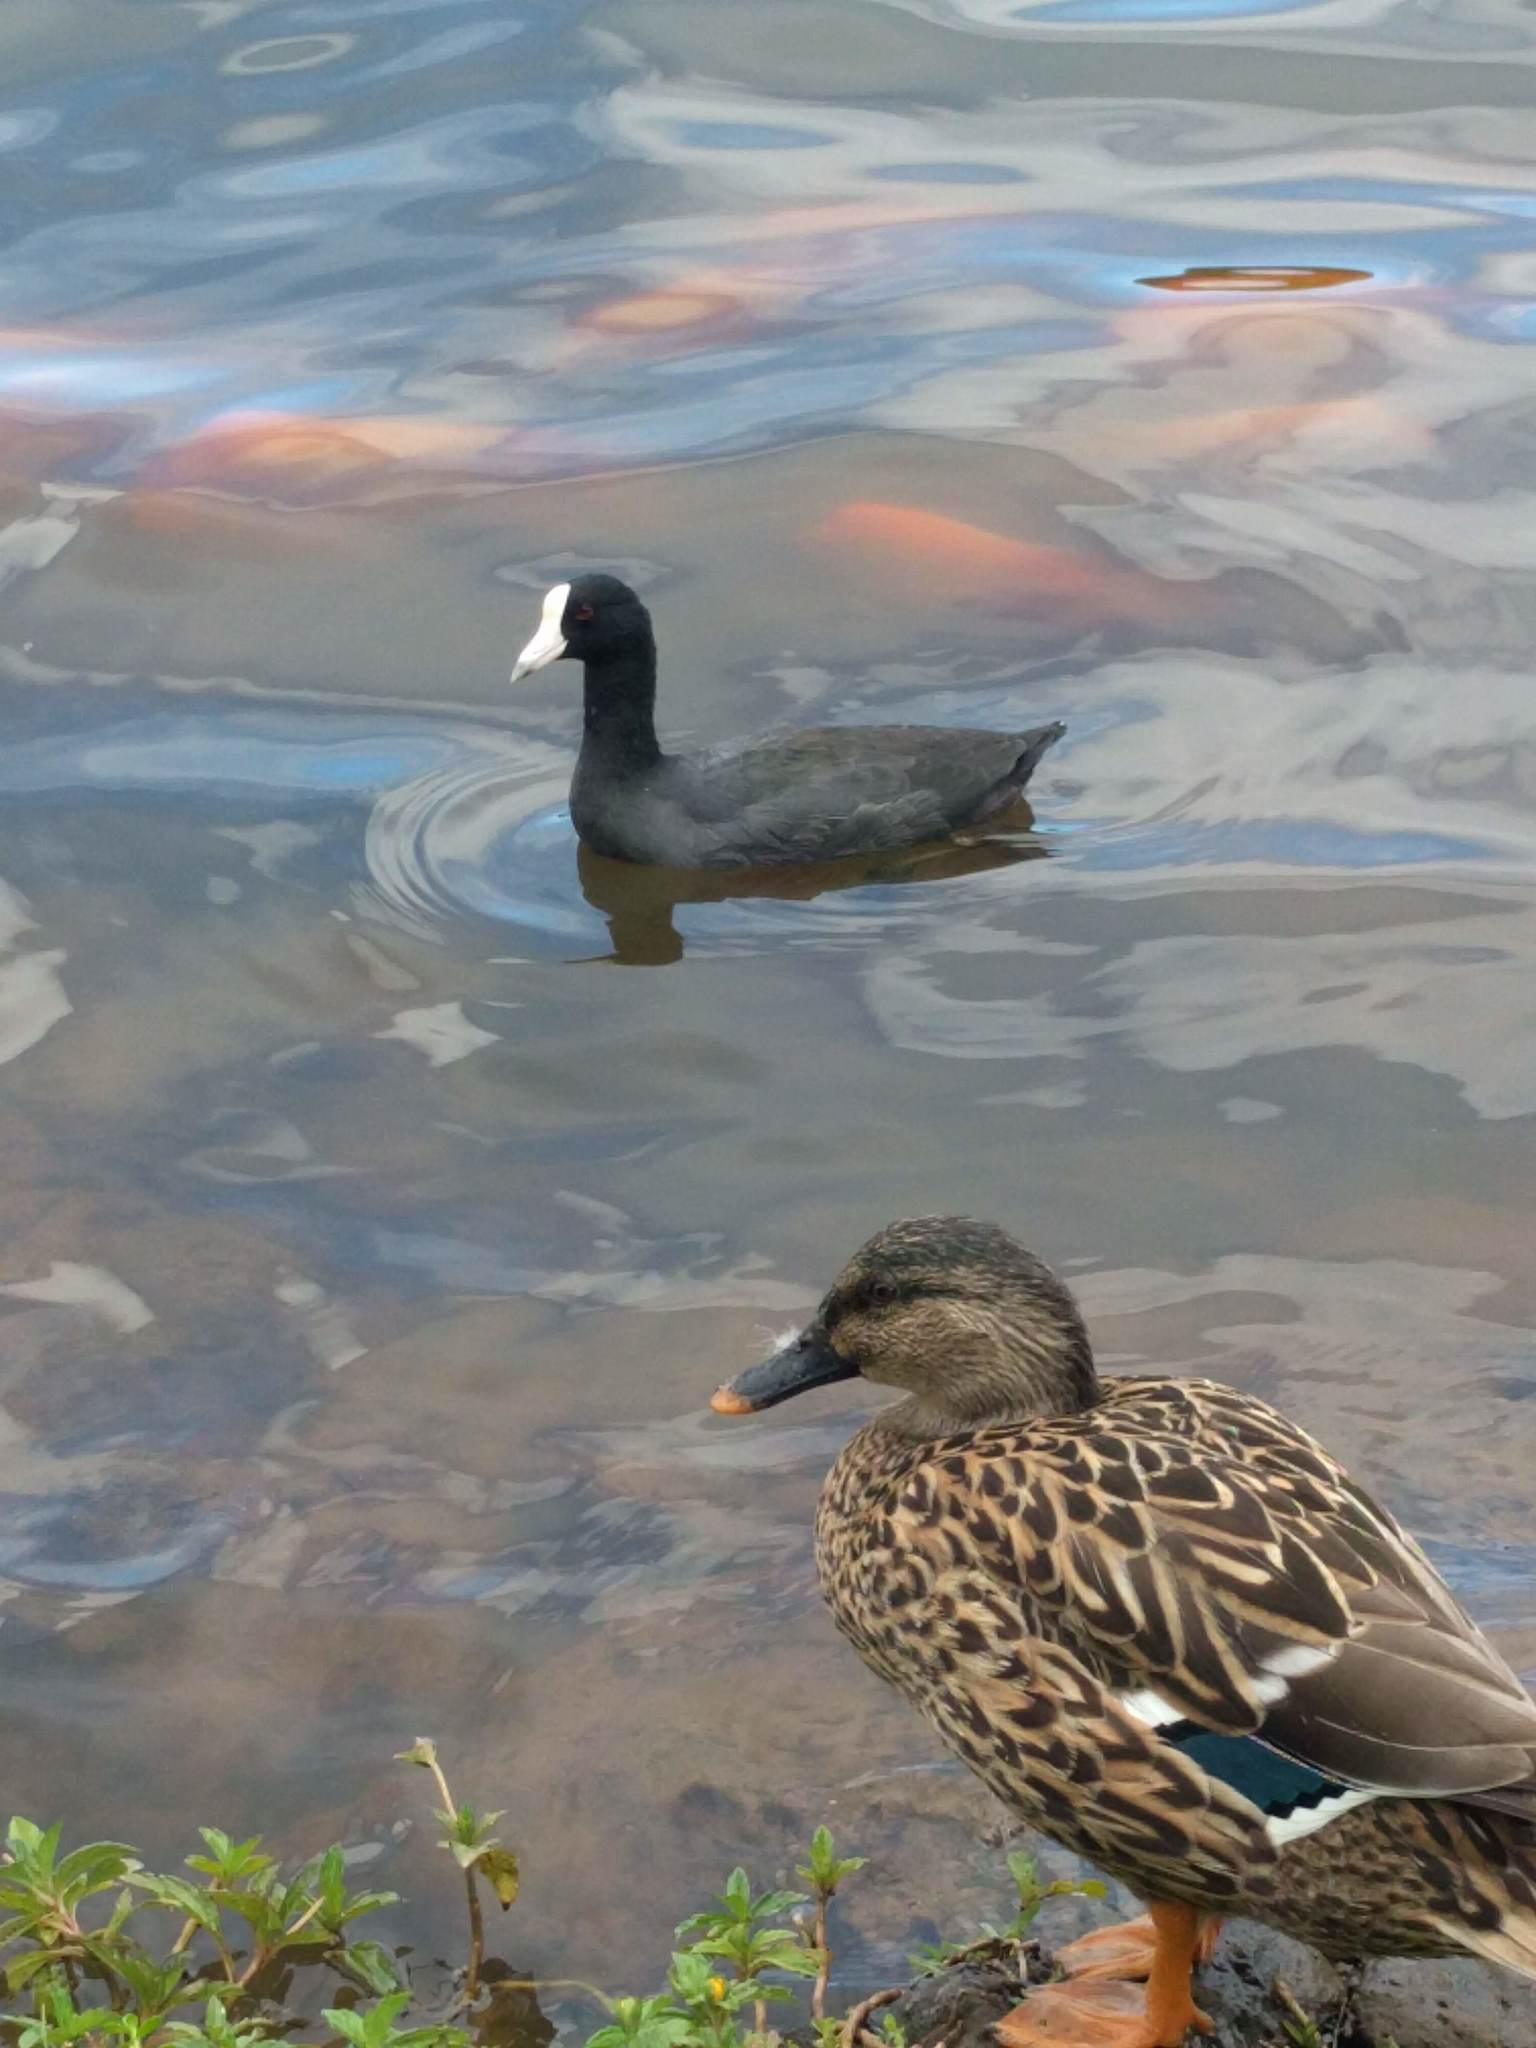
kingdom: Animalia
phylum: Chordata
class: Aves
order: Gruiformes
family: Rallidae
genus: Fulica
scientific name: Fulica alai
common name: Hawaiian coot
